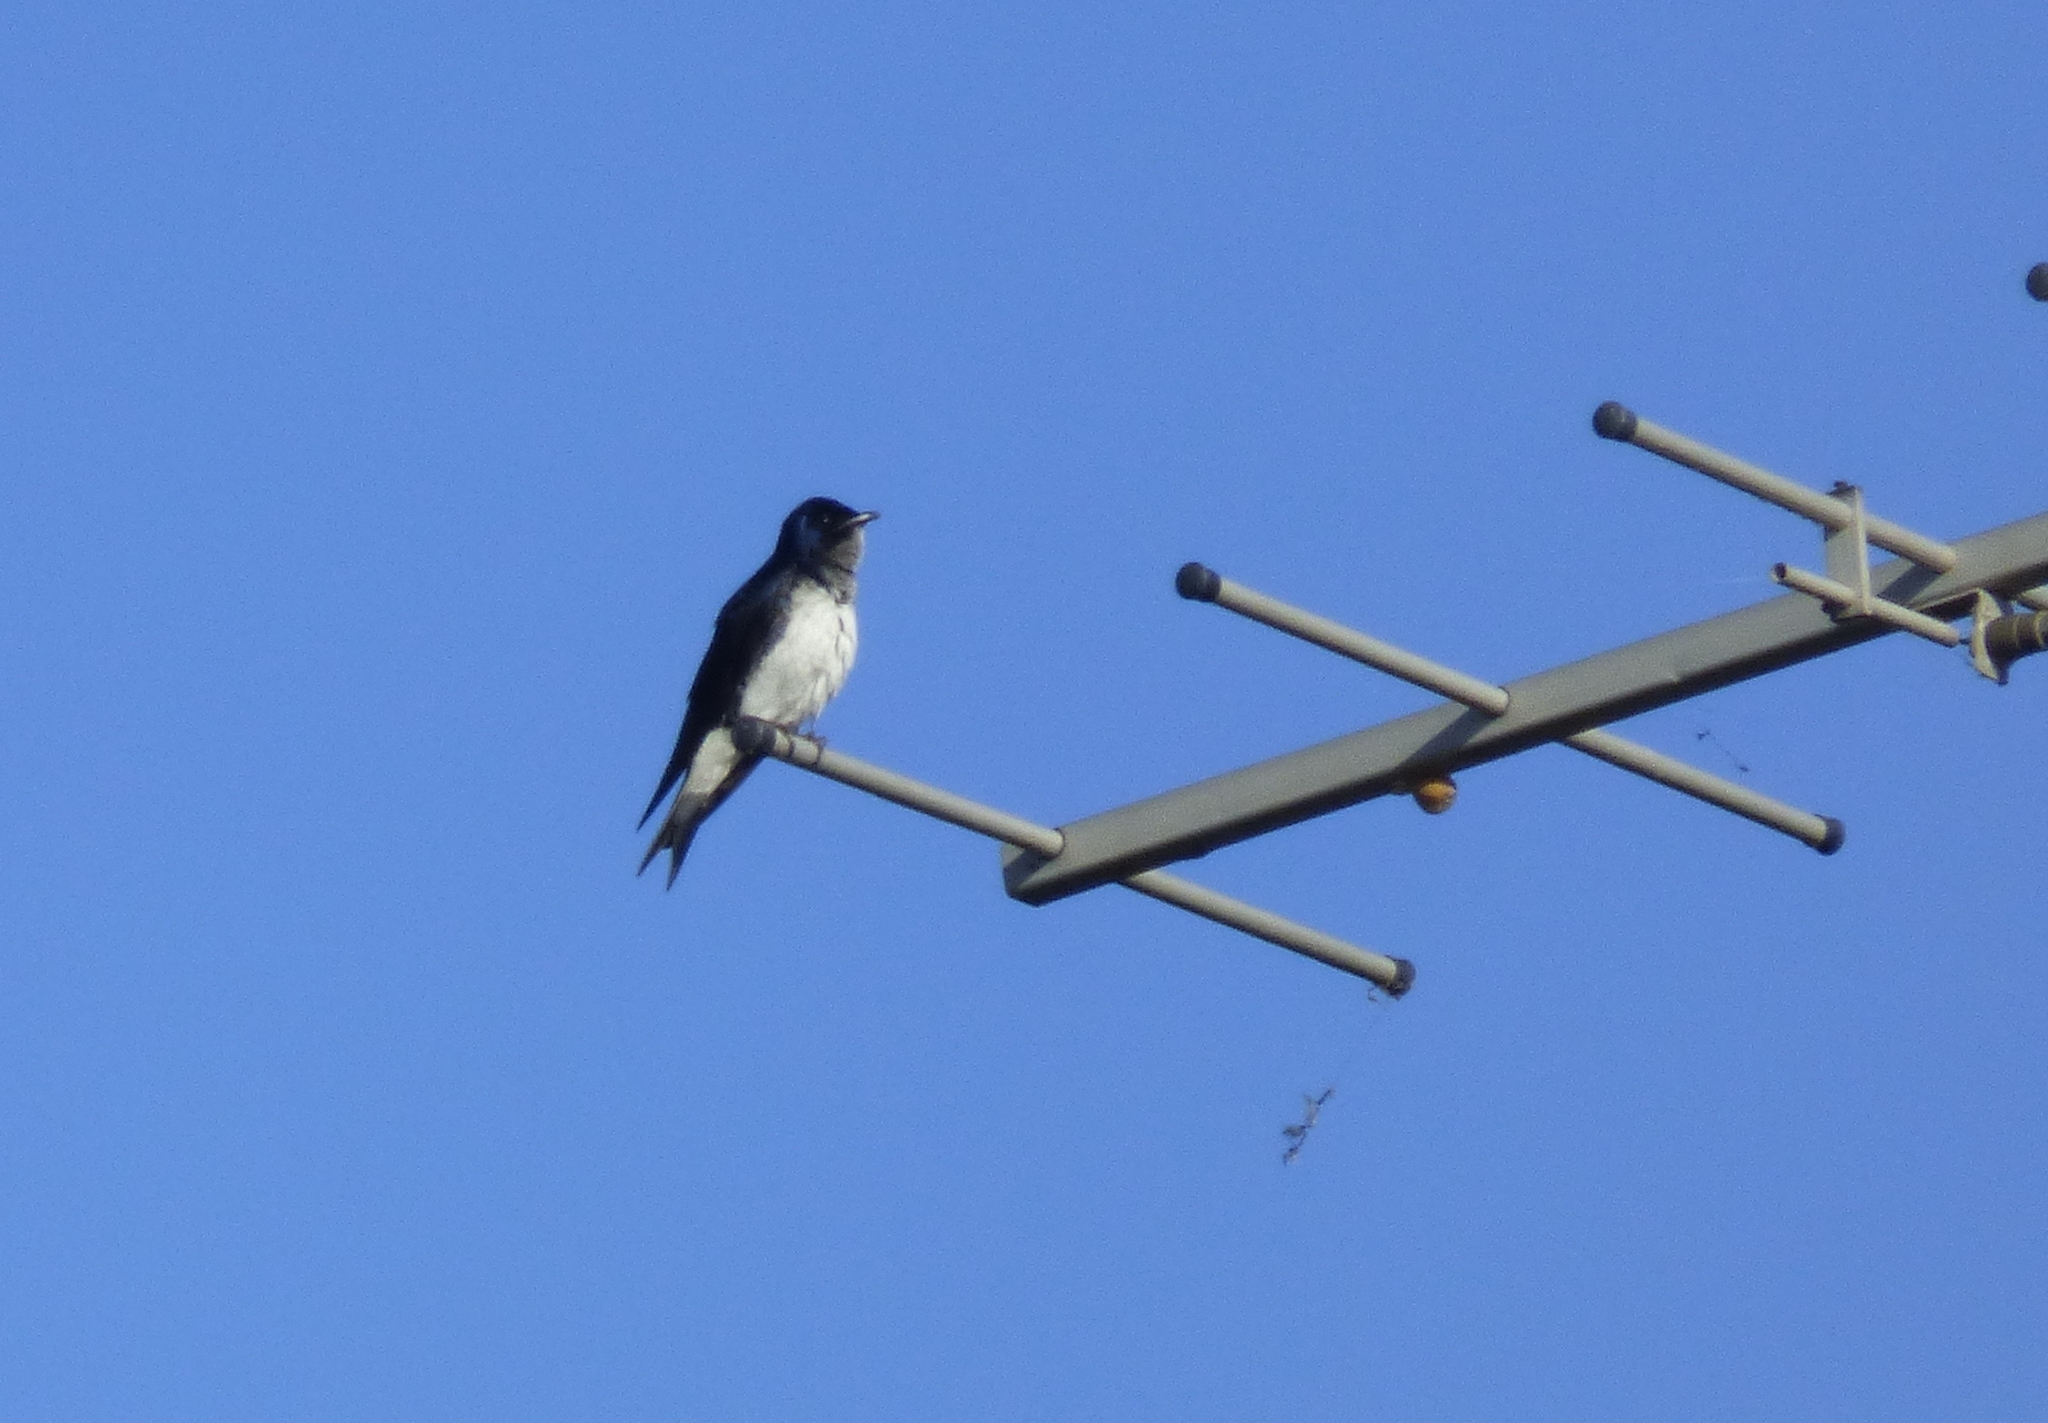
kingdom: Animalia
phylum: Chordata
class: Aves
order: Passeriformes
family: Hirundinidae
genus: Progne
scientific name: Progne chalybea
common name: Grey-breasted martin
